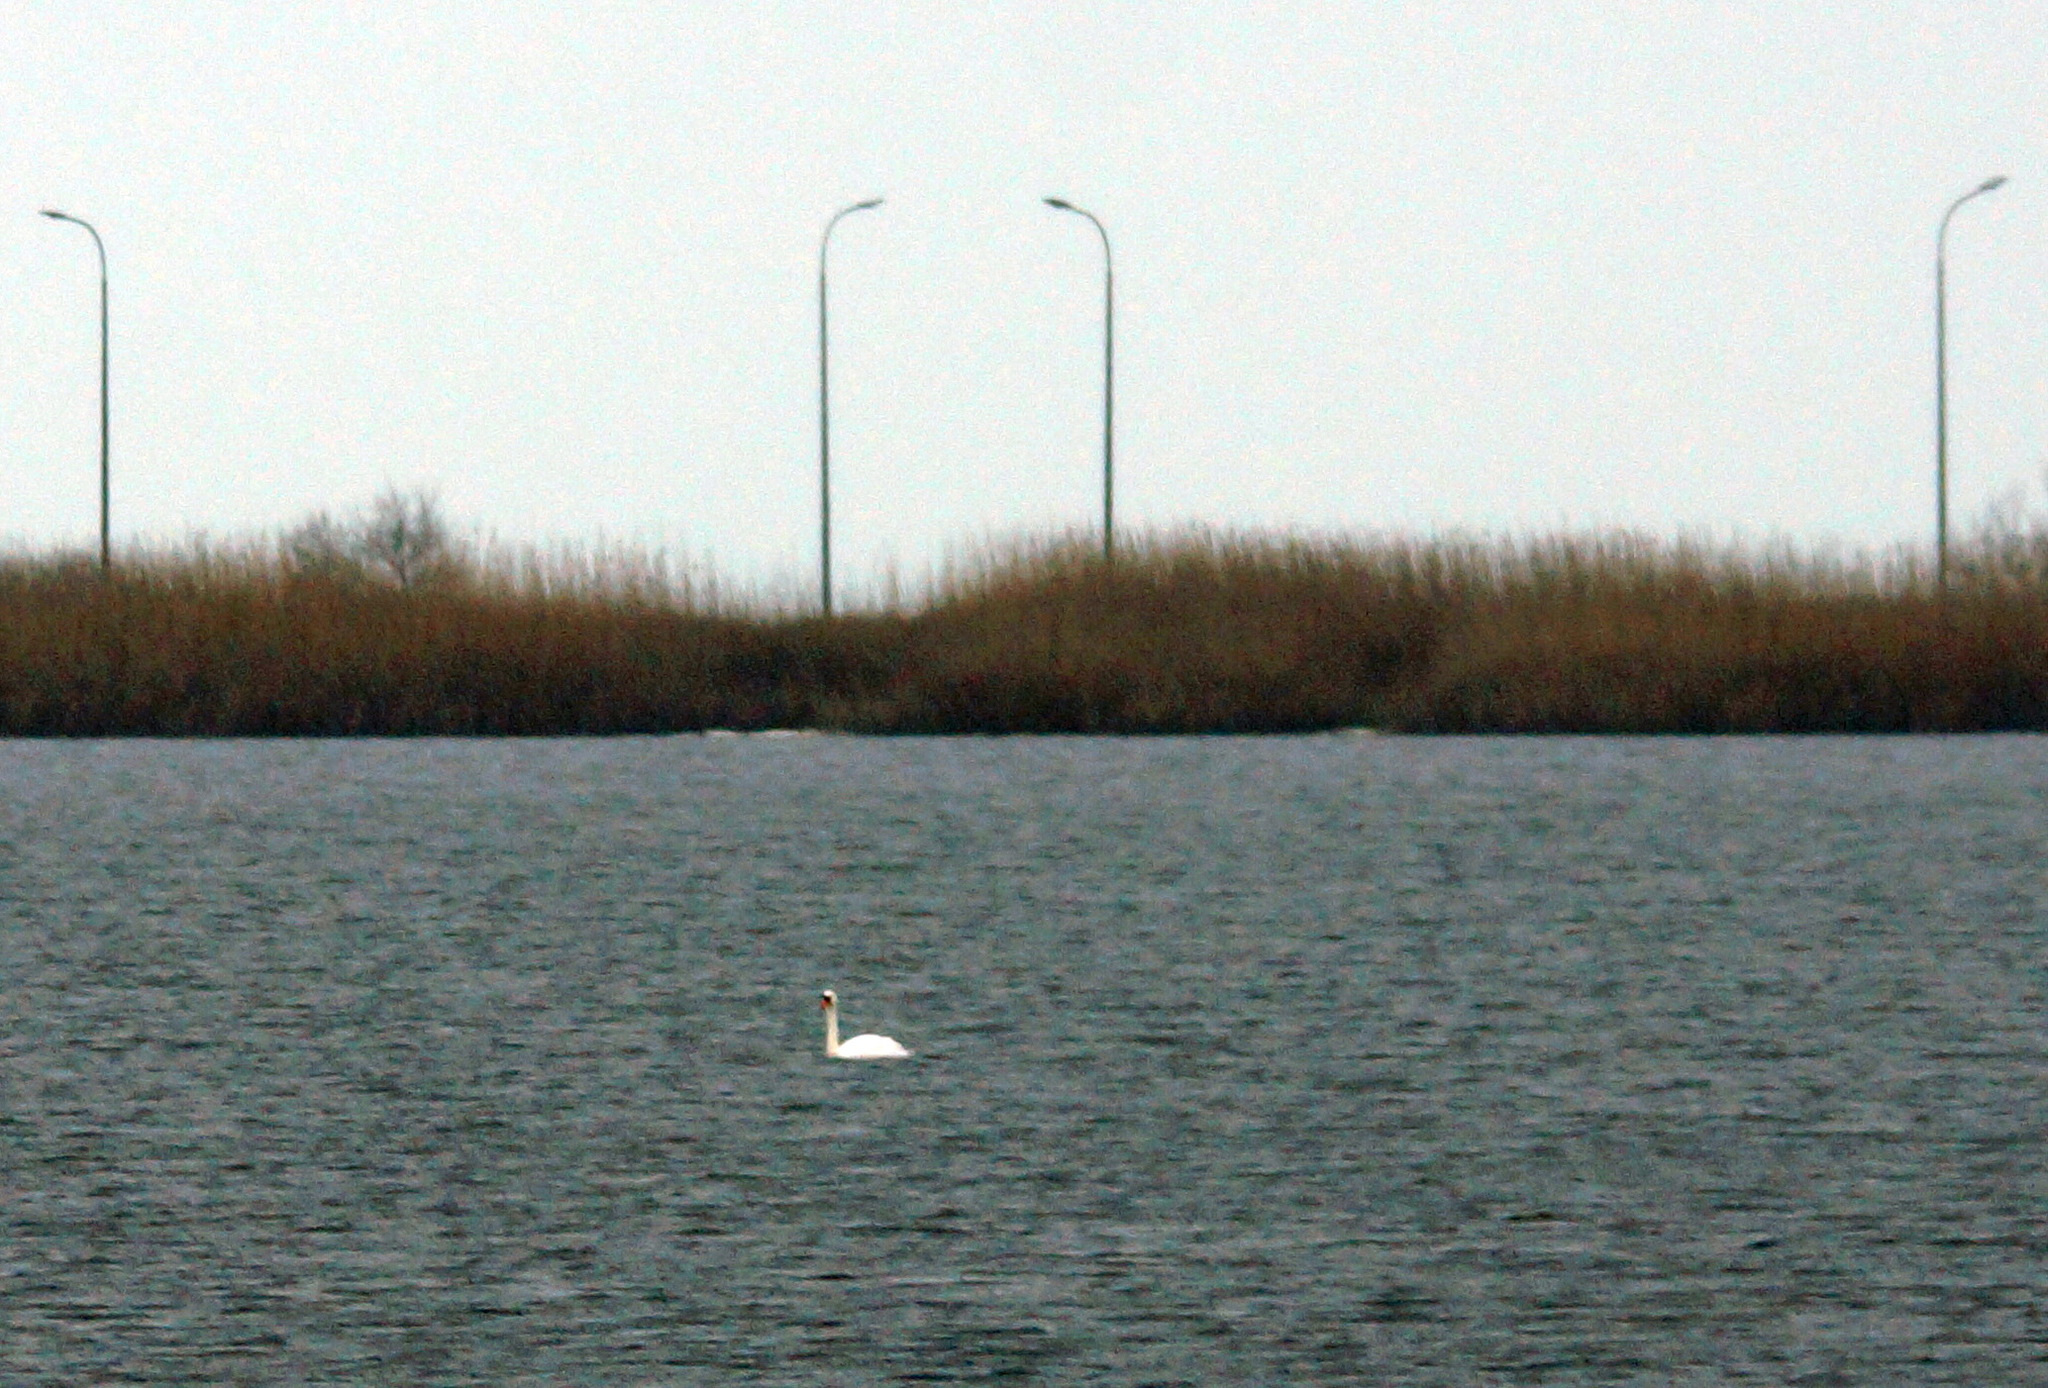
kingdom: Animalia
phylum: Chordata
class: Aves
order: Anseriformes
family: Anatidae
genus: Cygnus
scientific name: Cygnus olor
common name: Mute swan
